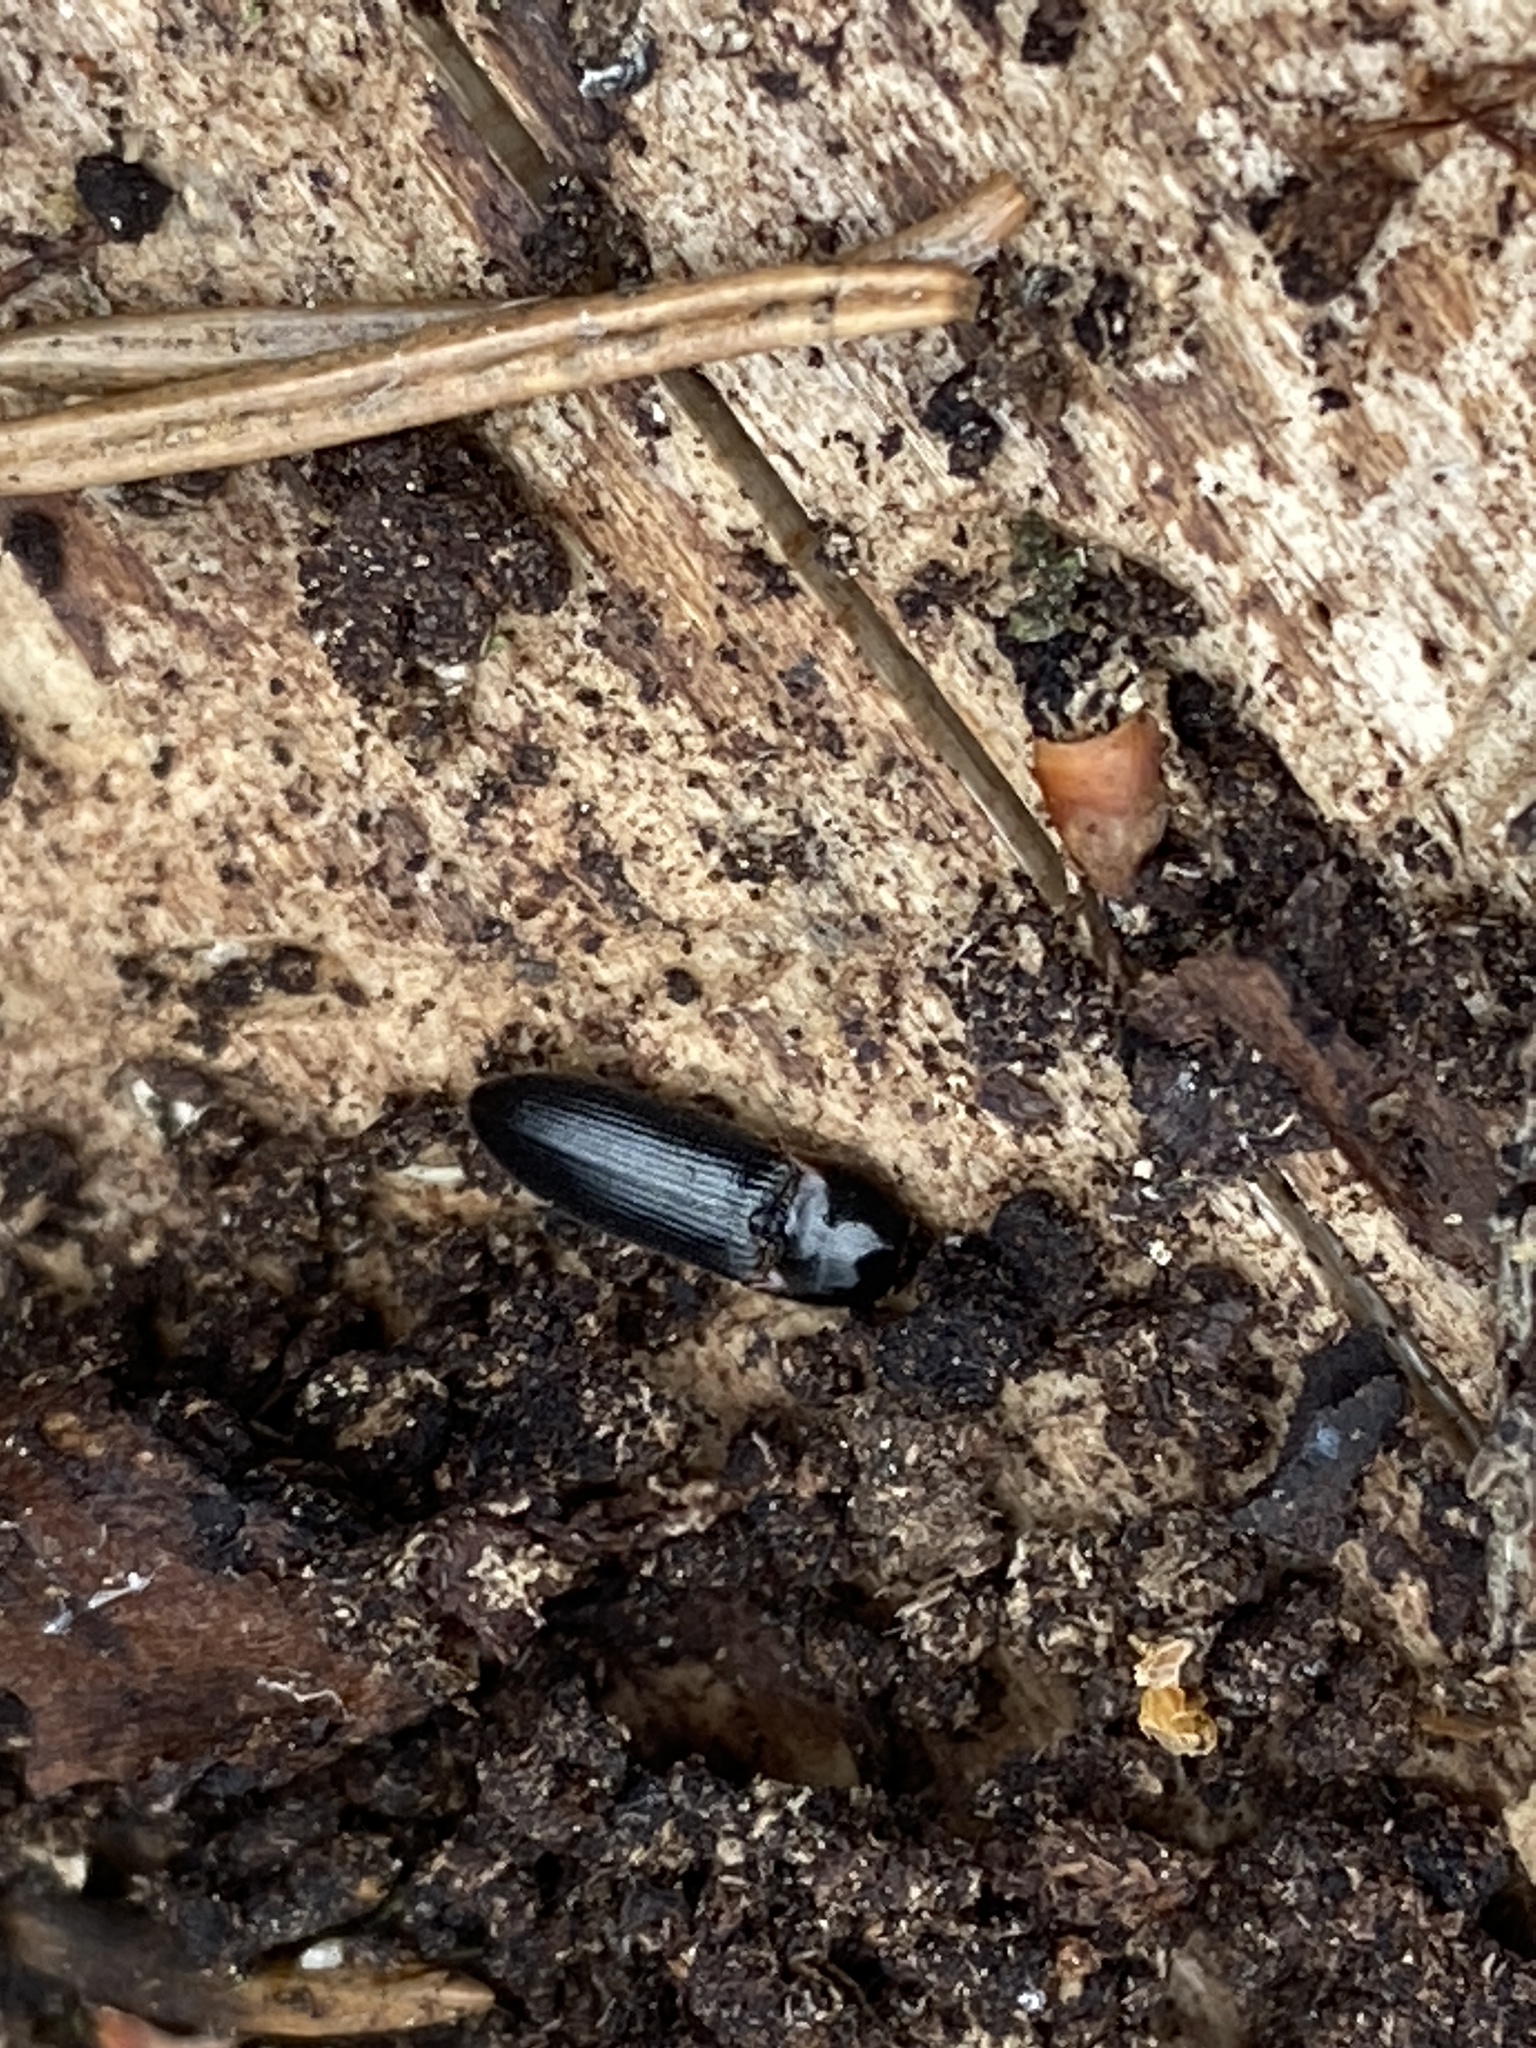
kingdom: Animalia
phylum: Arthropoda
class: Insecta
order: Coleoptera
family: Elateridae
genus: Ampedus
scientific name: Ampedus erythrogonus
